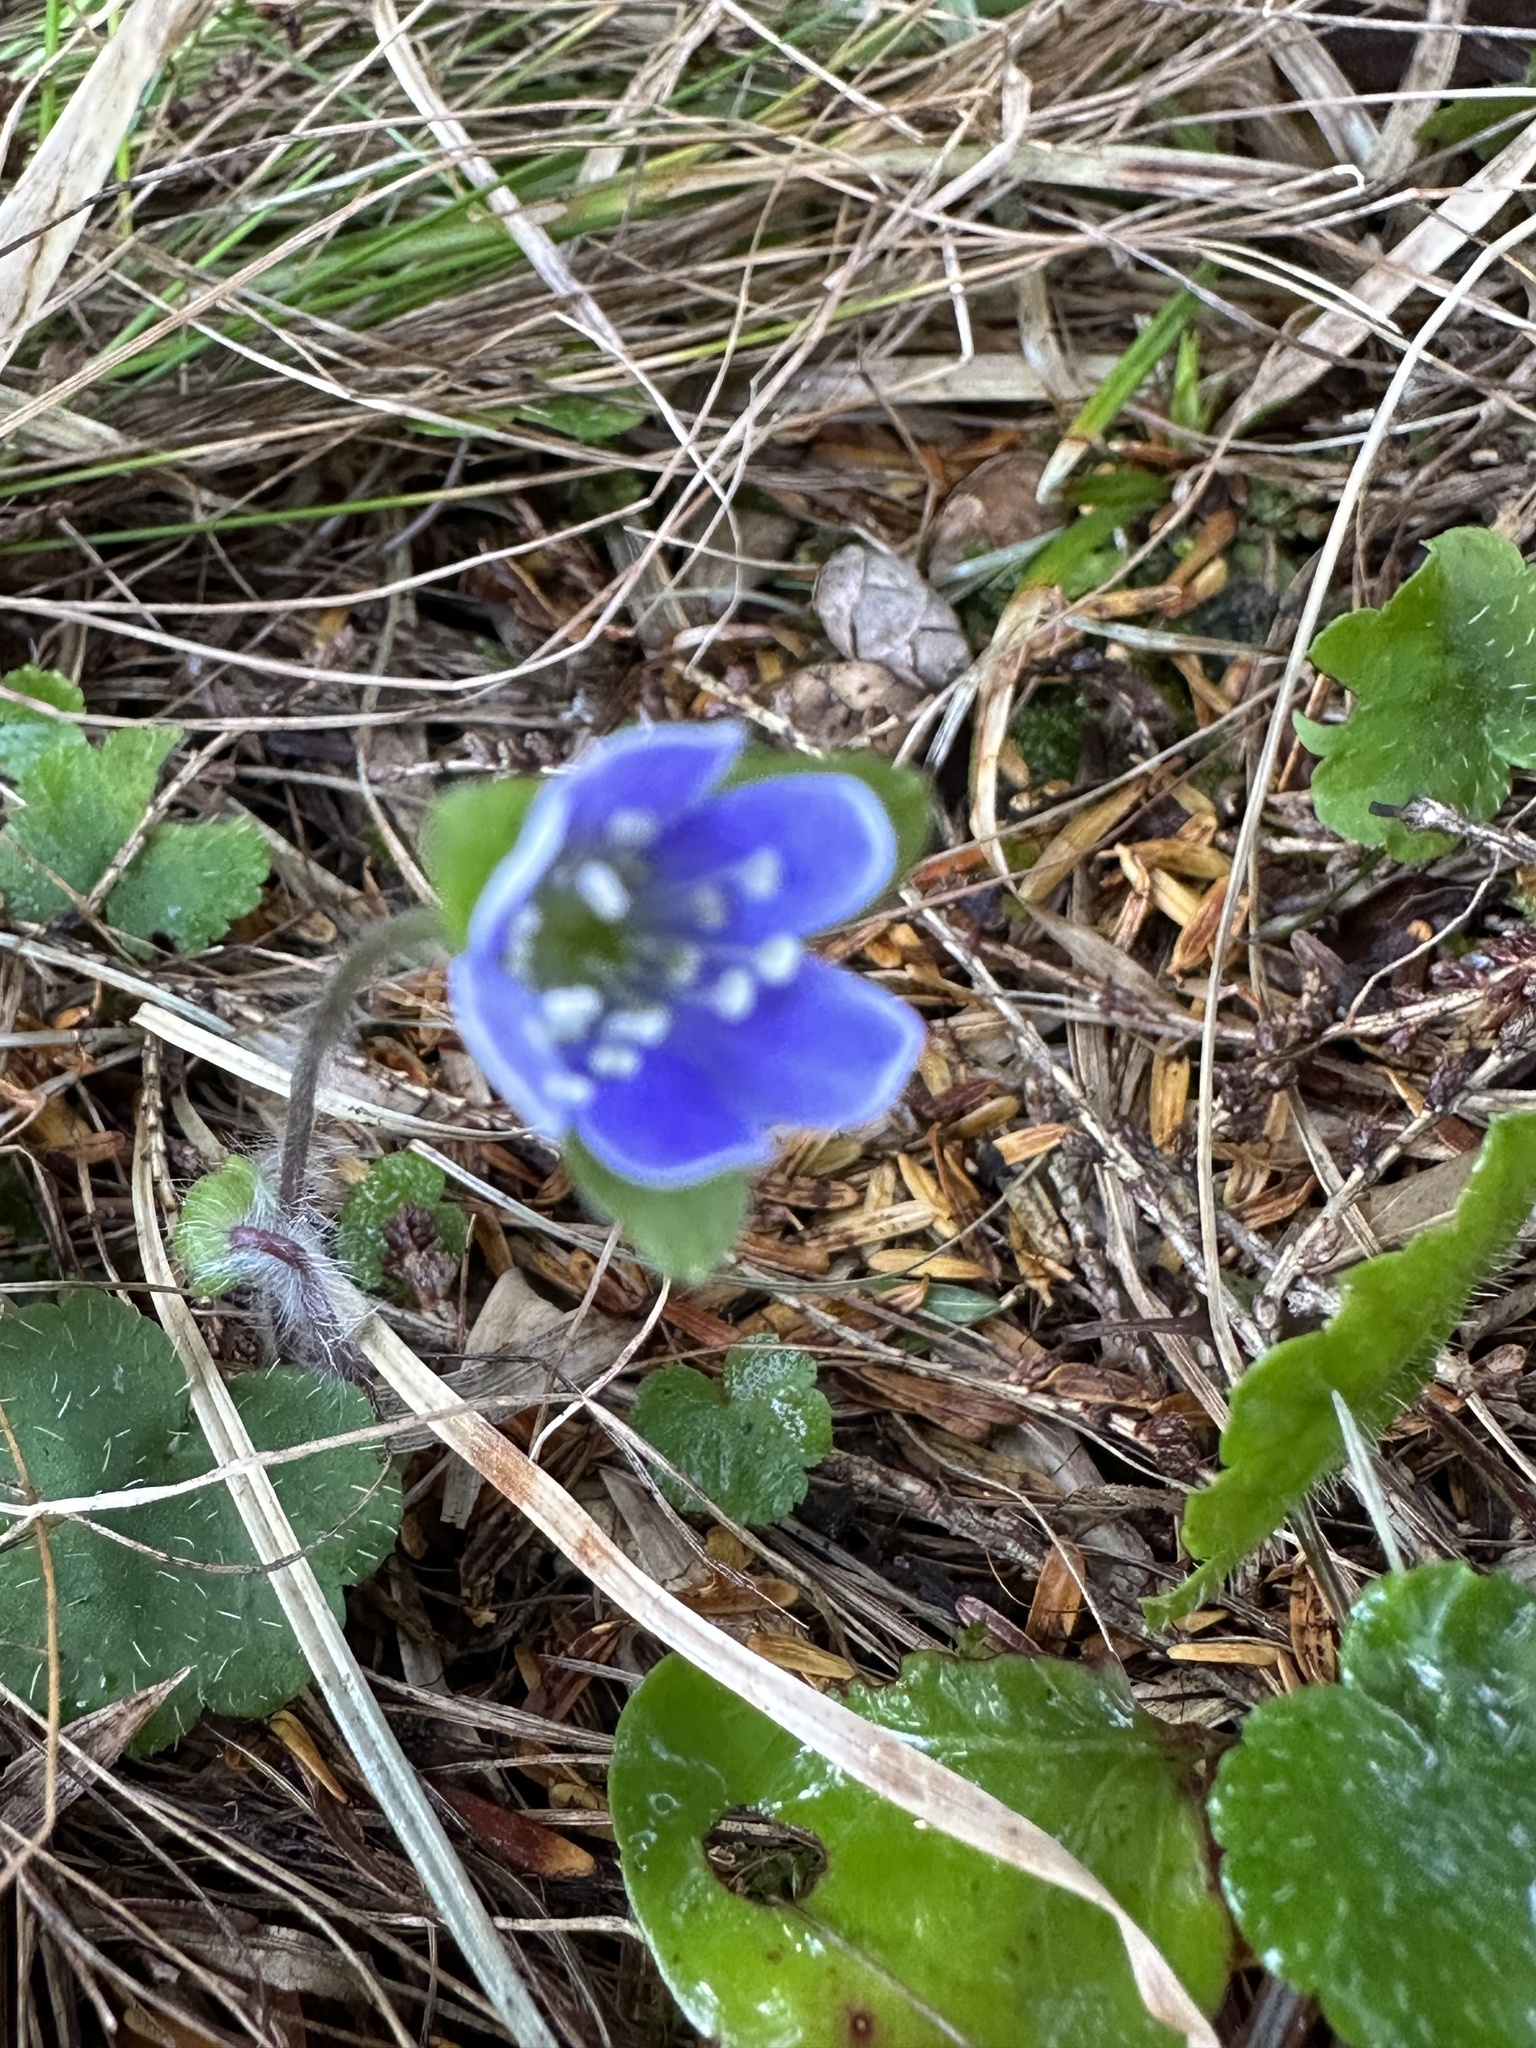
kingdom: Plantae
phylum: Tracheophyta
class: Magnoliopsida
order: Ranunculales
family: Ranunculaceae
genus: Hepatica
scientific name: Hepatica americana
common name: American hepatica
